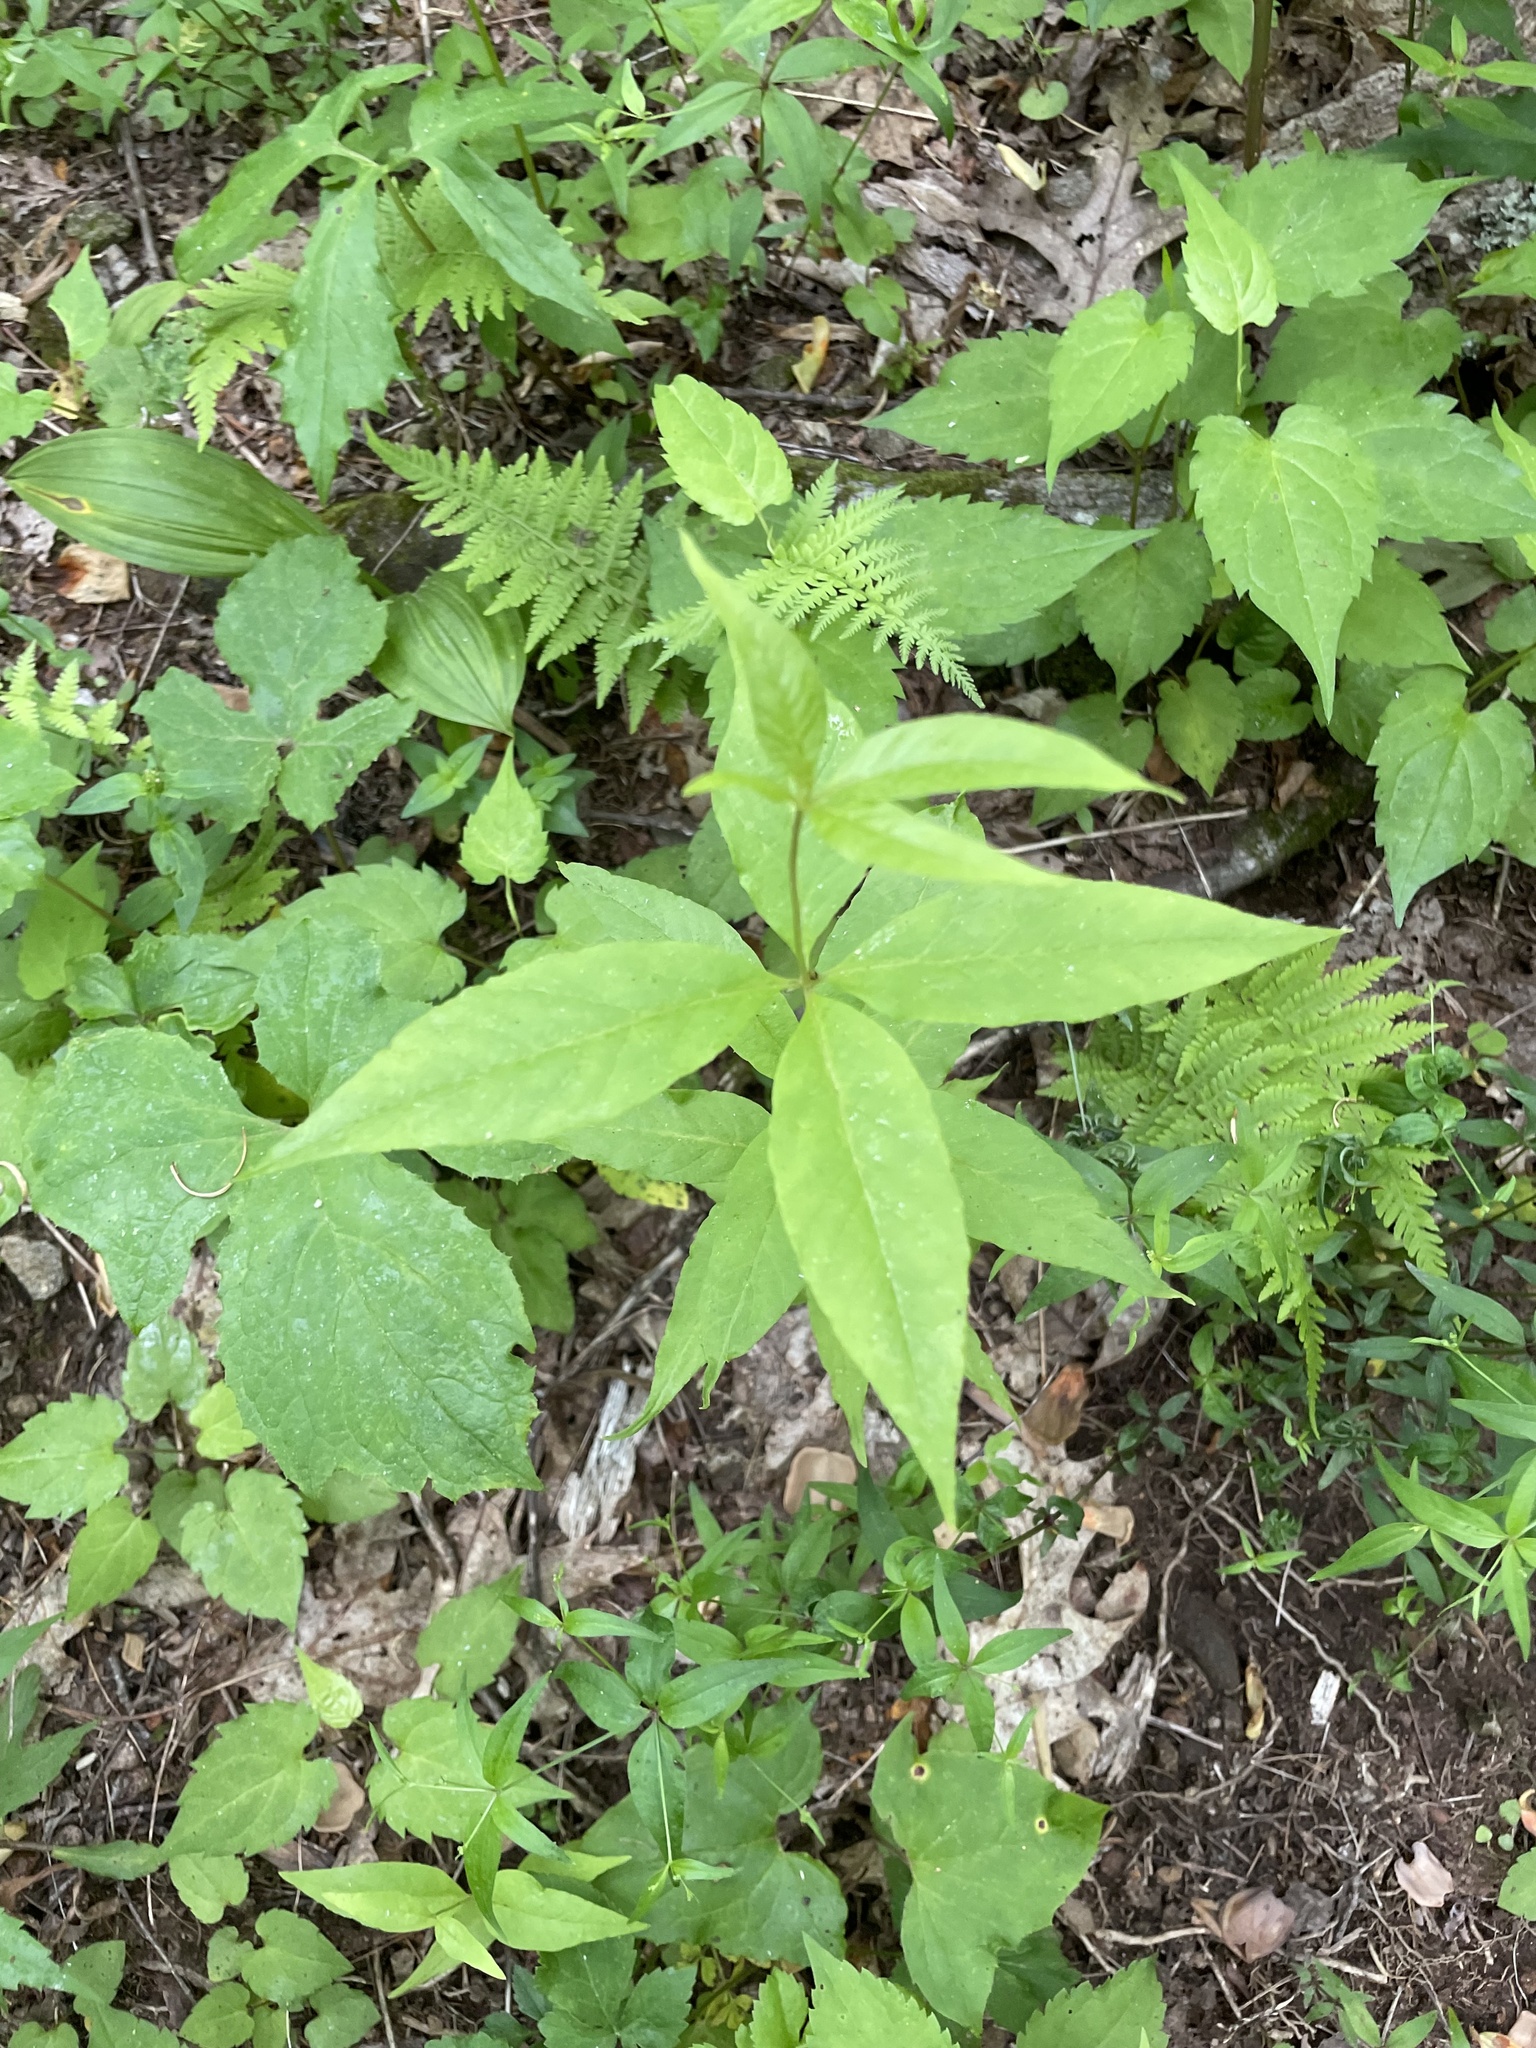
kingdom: Plantae
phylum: Tracheophyta
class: Magnoliopsida
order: Ericales
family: Primulaceae
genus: Lysimachia
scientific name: Lysimachia quadrifolia
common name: Whorled loosestrife
